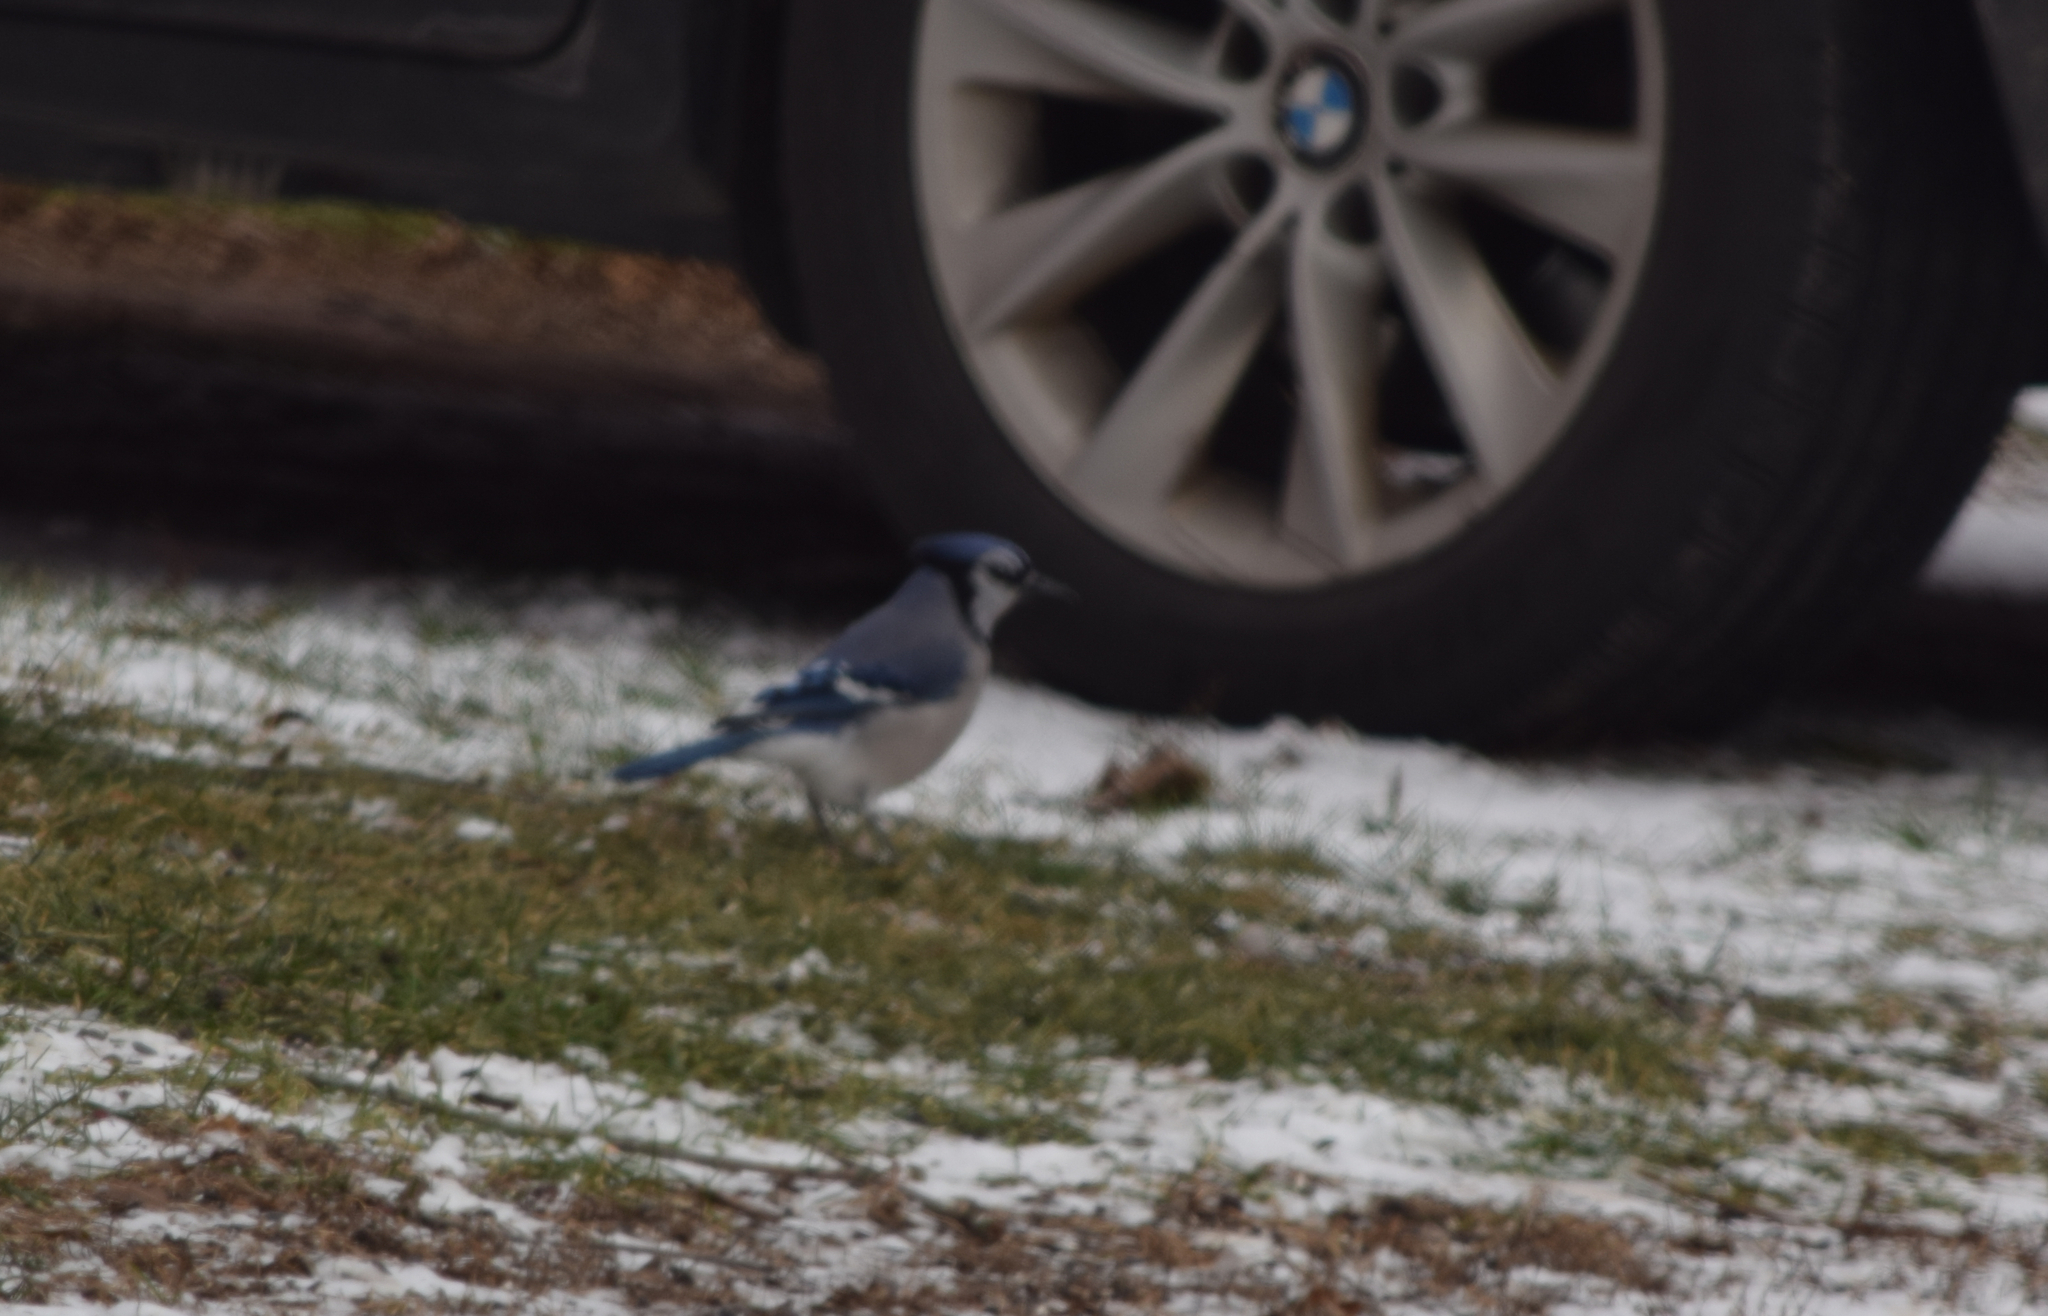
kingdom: Animalia
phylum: Chordata
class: Aves
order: Passeriformes
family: Corvidae
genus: Cyanocitta
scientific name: Cyanocitta cristata
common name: Blue jay
